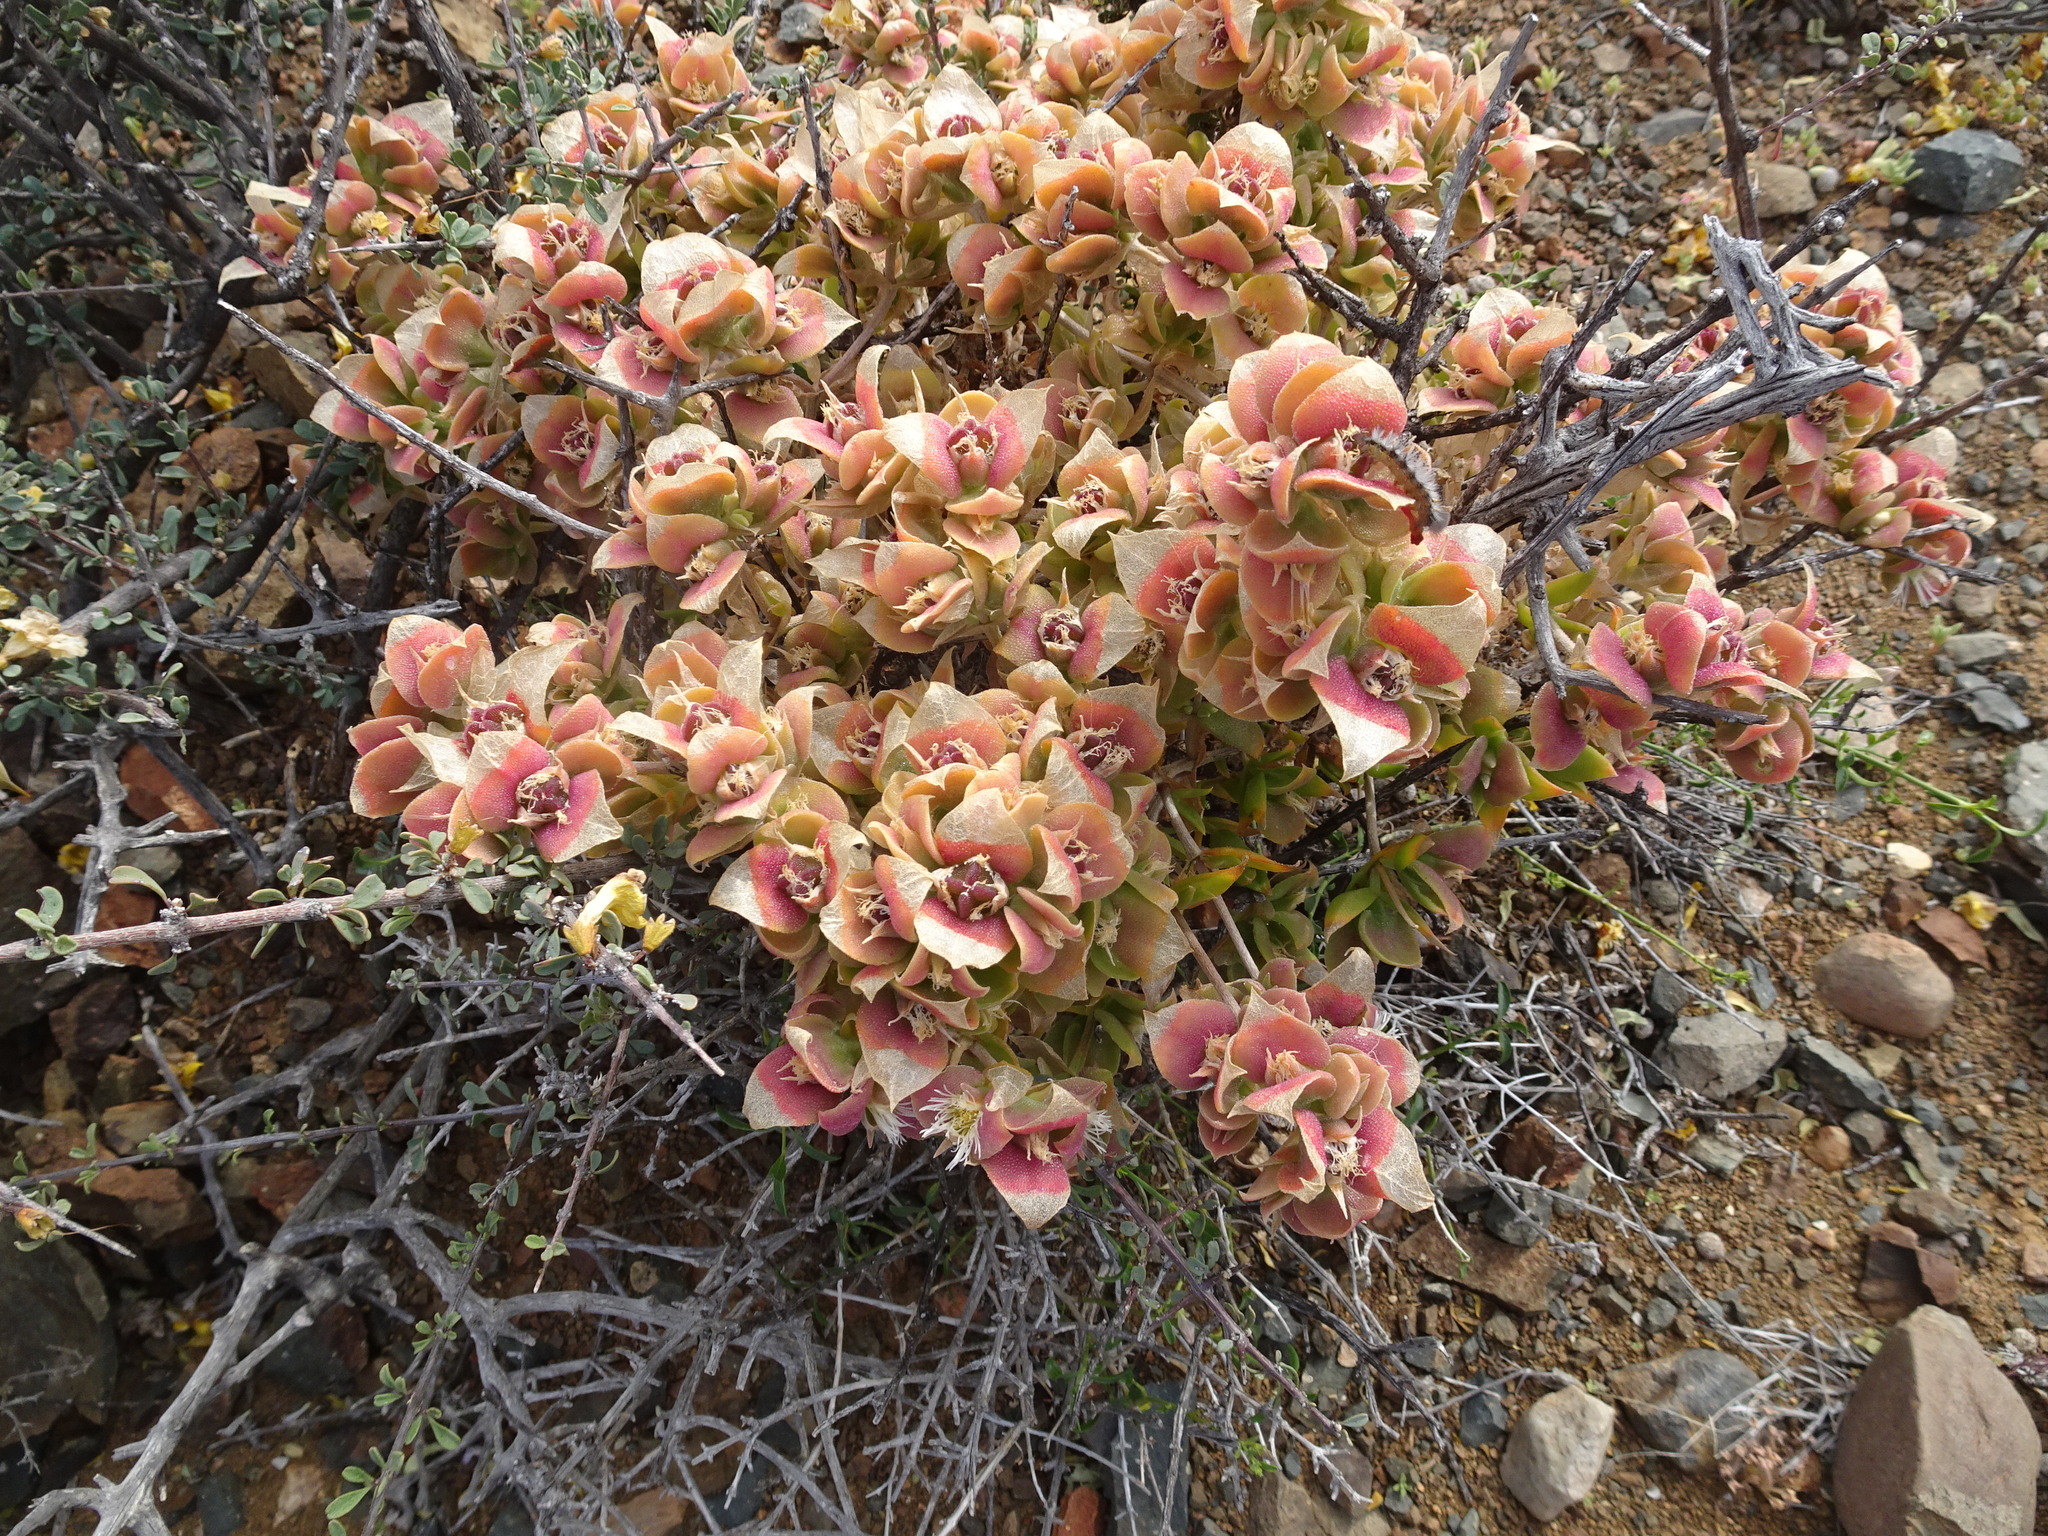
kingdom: Plantae
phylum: Tracheophyta
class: Magnoliopsida
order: Caryophyllales
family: Aizoaceae
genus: Mesembryanthemum
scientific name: Mesembryanthemum expansum
